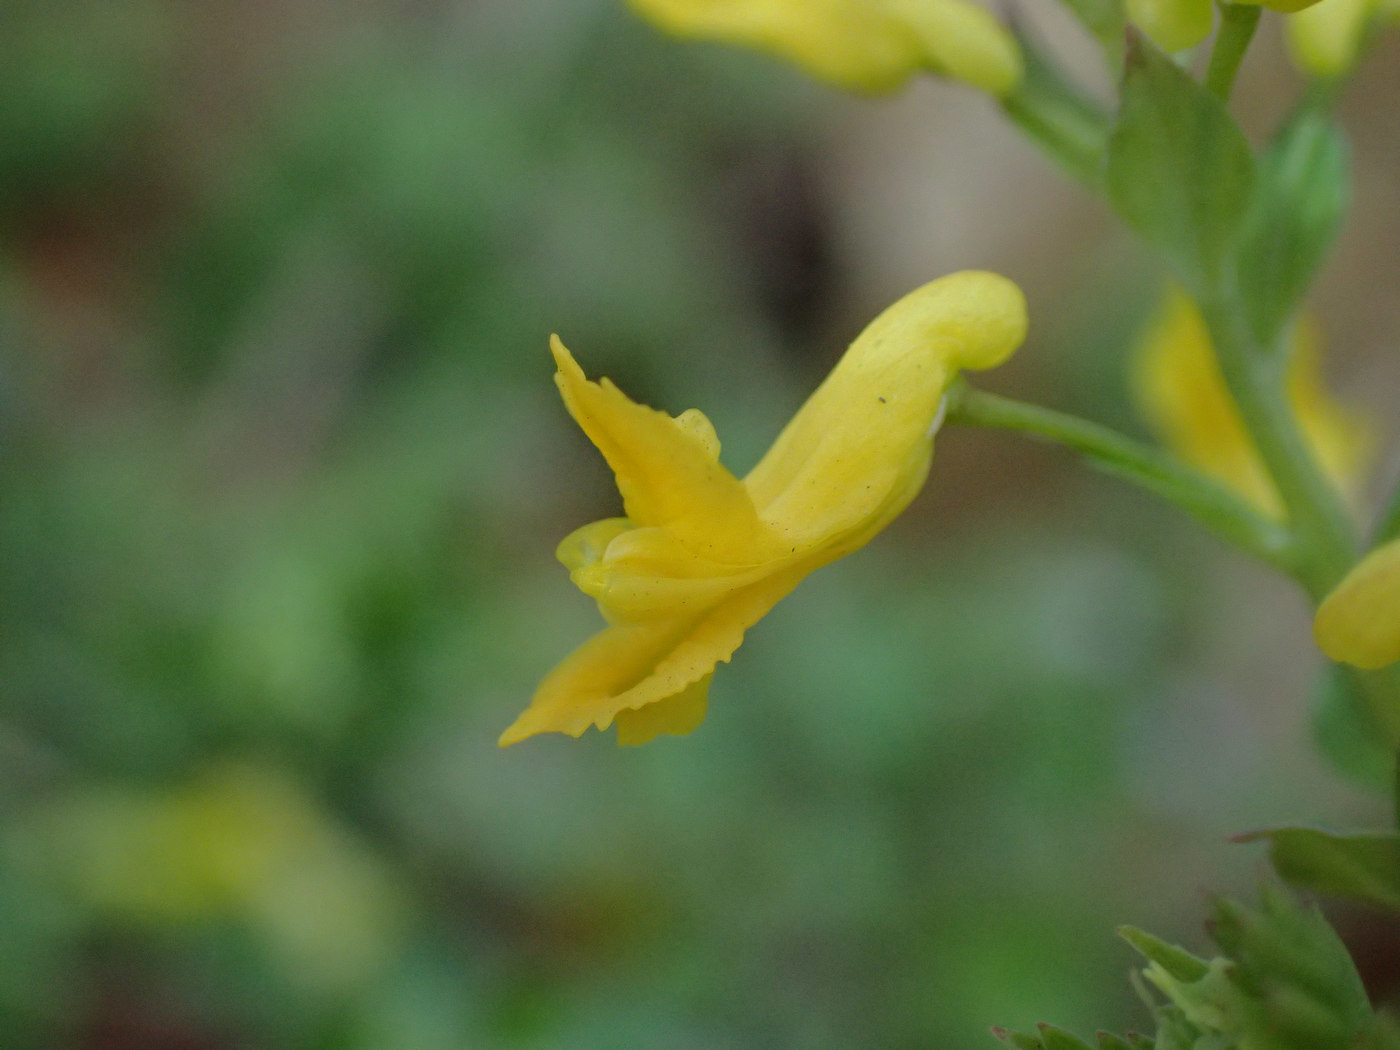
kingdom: Plantae
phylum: Tracheophyta
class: Magnoliopsida
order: Ranunculales
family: Papaveraceae
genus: Corydalis
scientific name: Corydalis flavula
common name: Yellow corydalis
